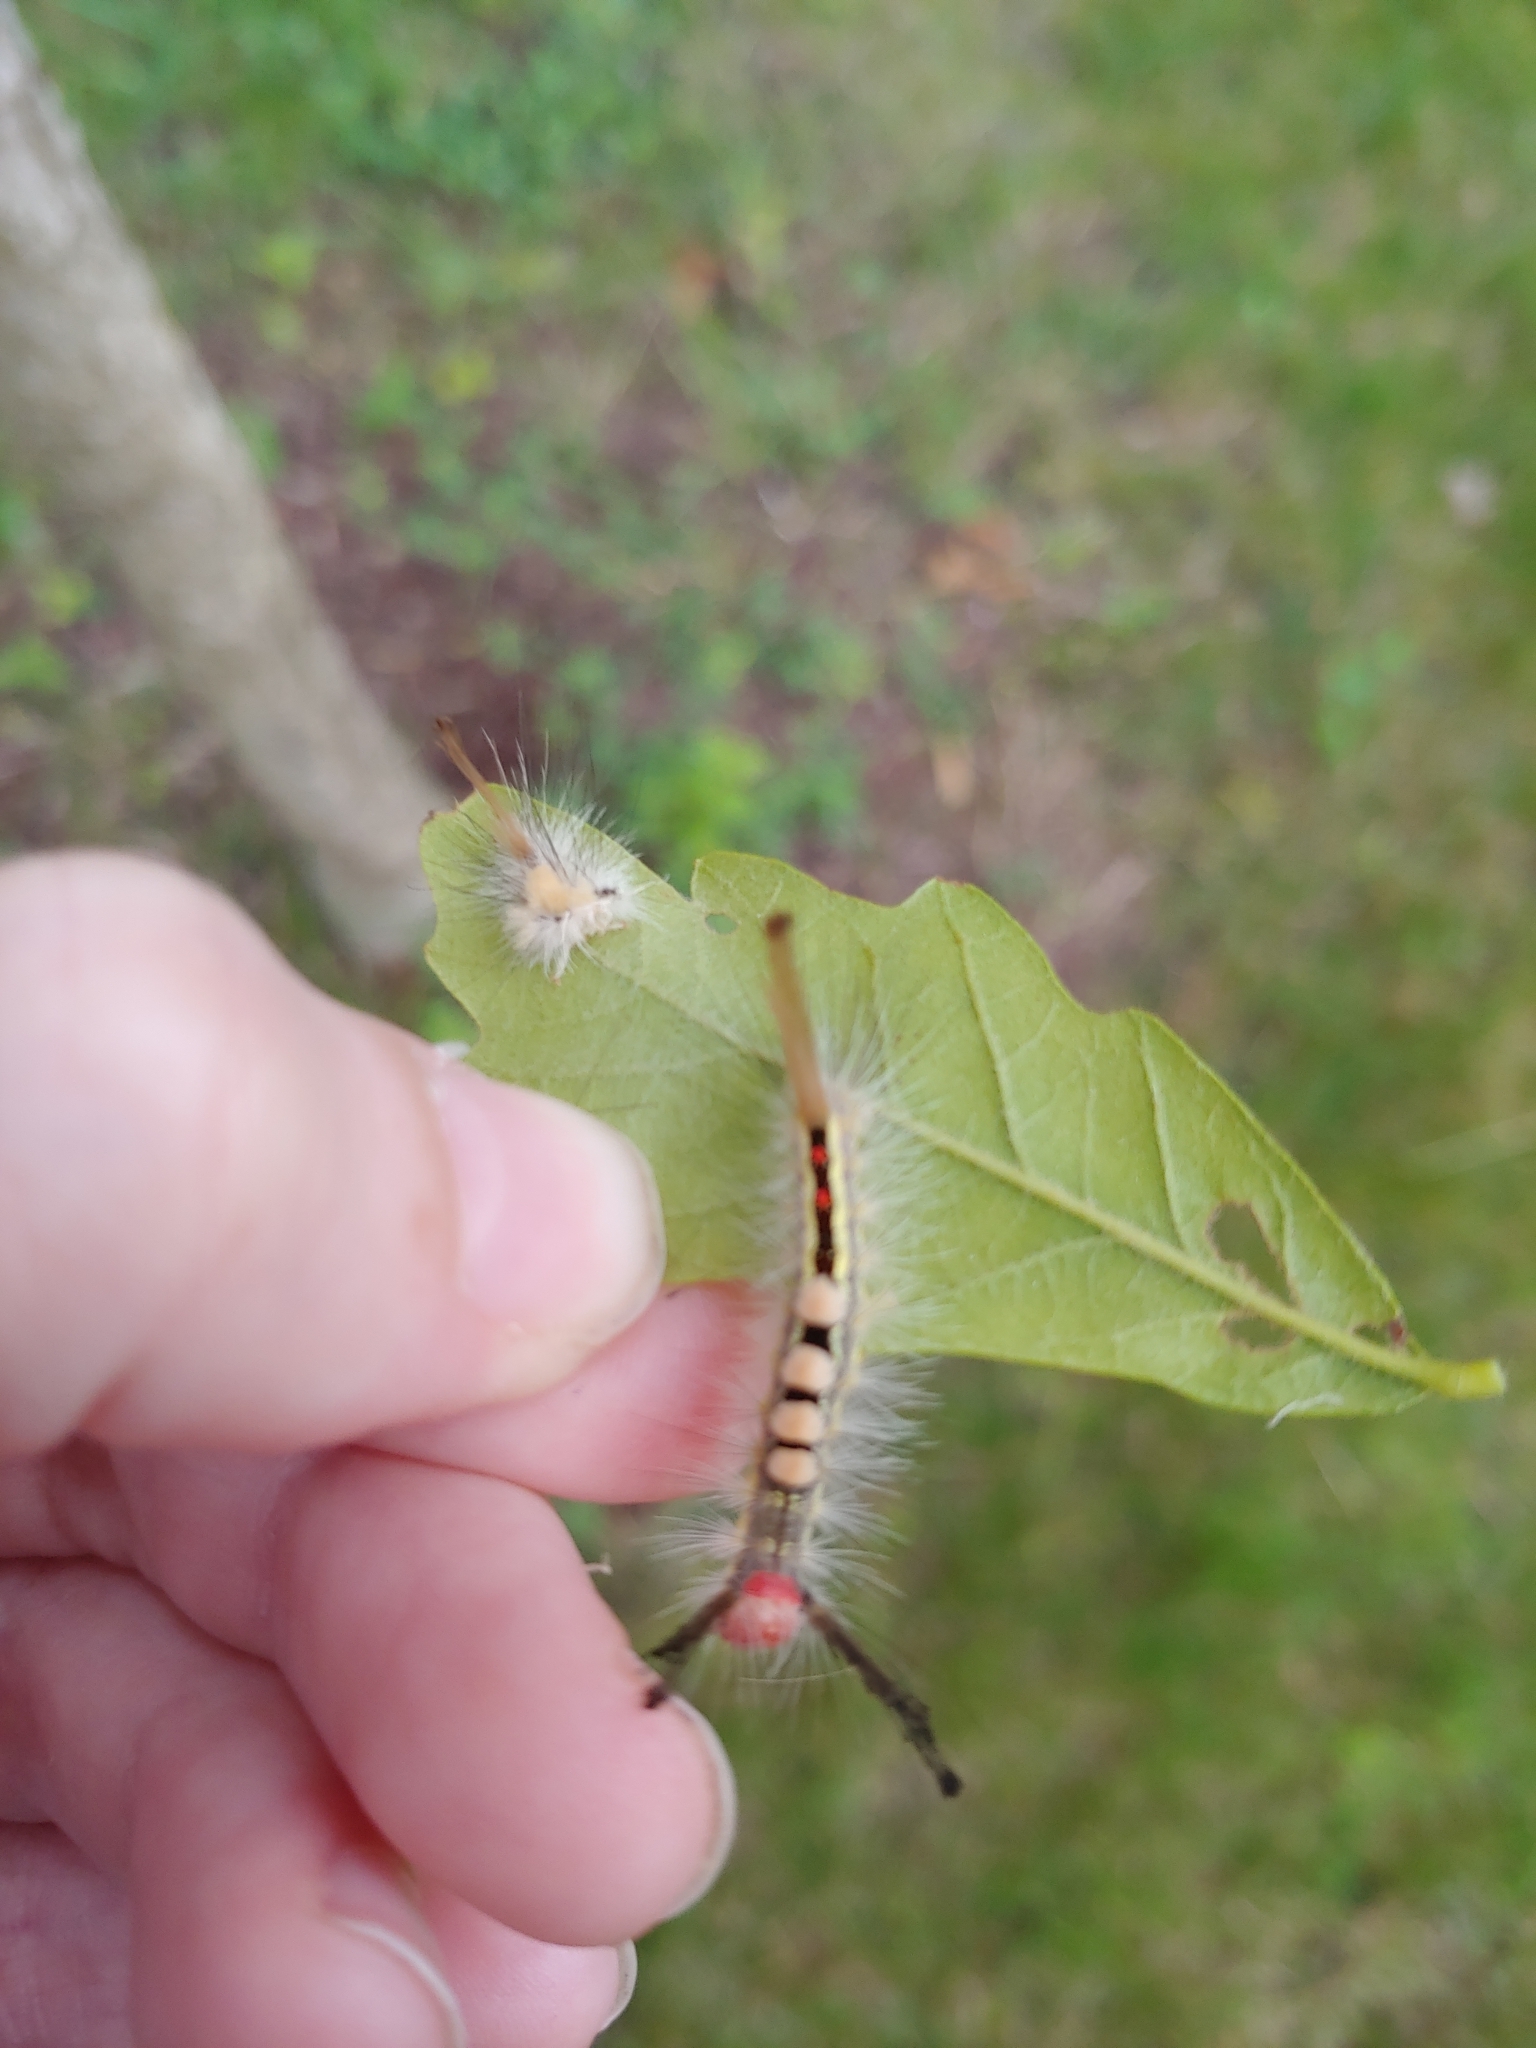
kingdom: Animalia
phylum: Arthropoda
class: Insecta
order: Lepidoptera
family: Erebidae
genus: Orgyia
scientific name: Orgyia leucostigma
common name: White-marked tussock moth
